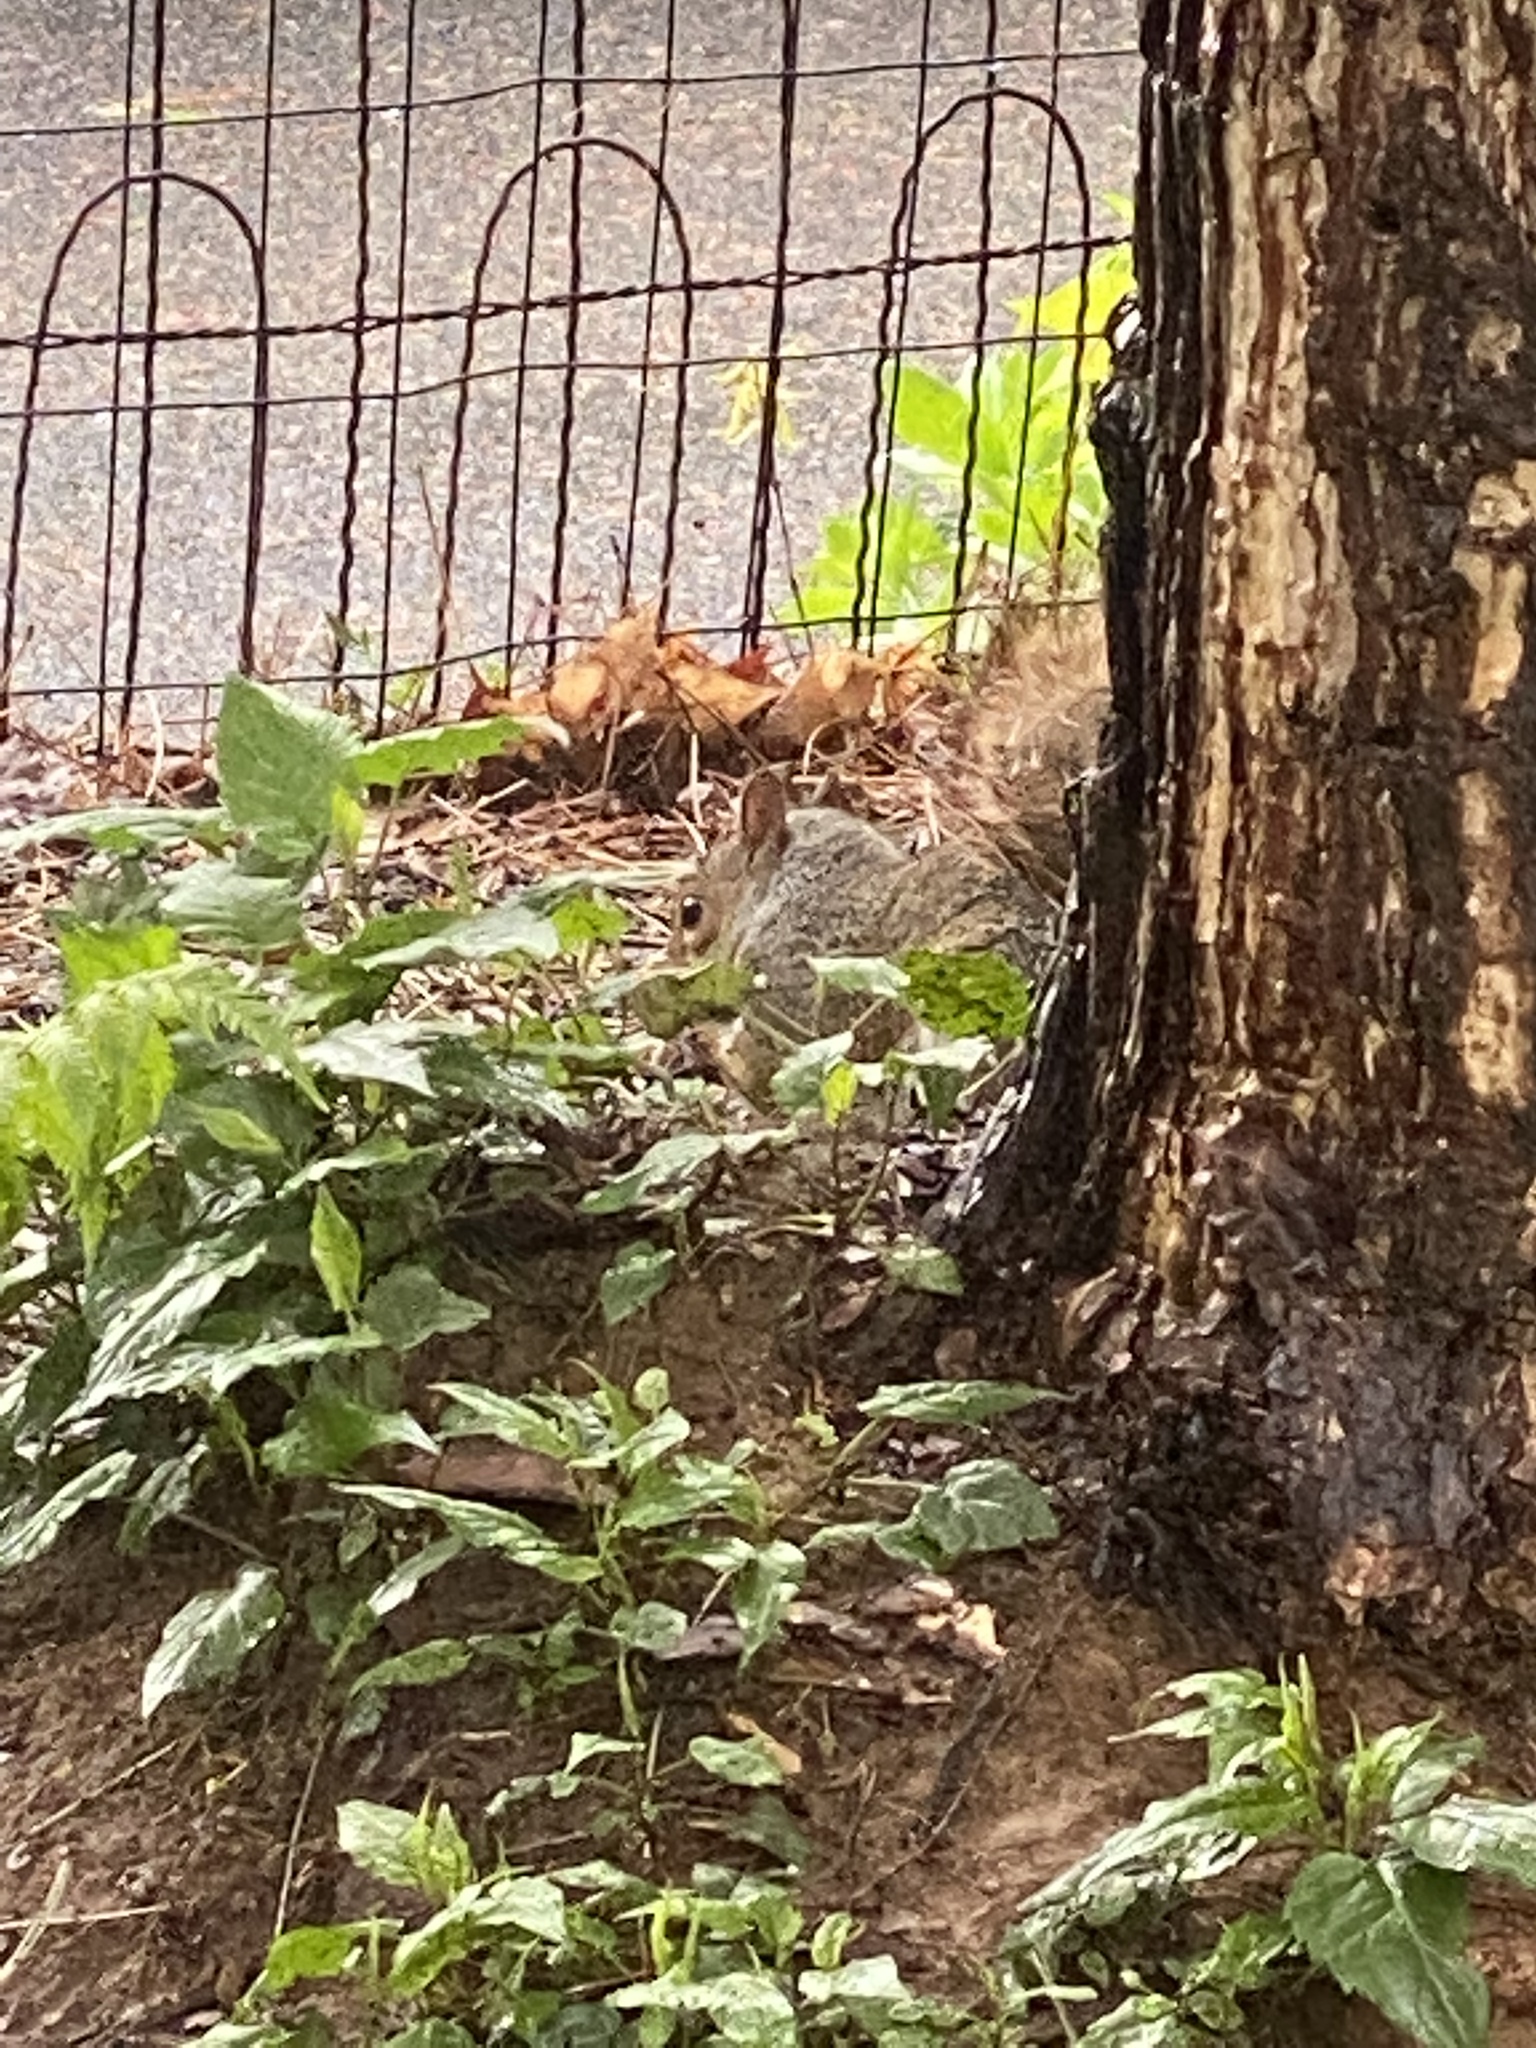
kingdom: Animalia
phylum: Chordata
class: Mammalia
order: Rodentia
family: Sciuridae
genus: Sciurus
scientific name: Sciurus carolinensis
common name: Eastern gray squirrel
